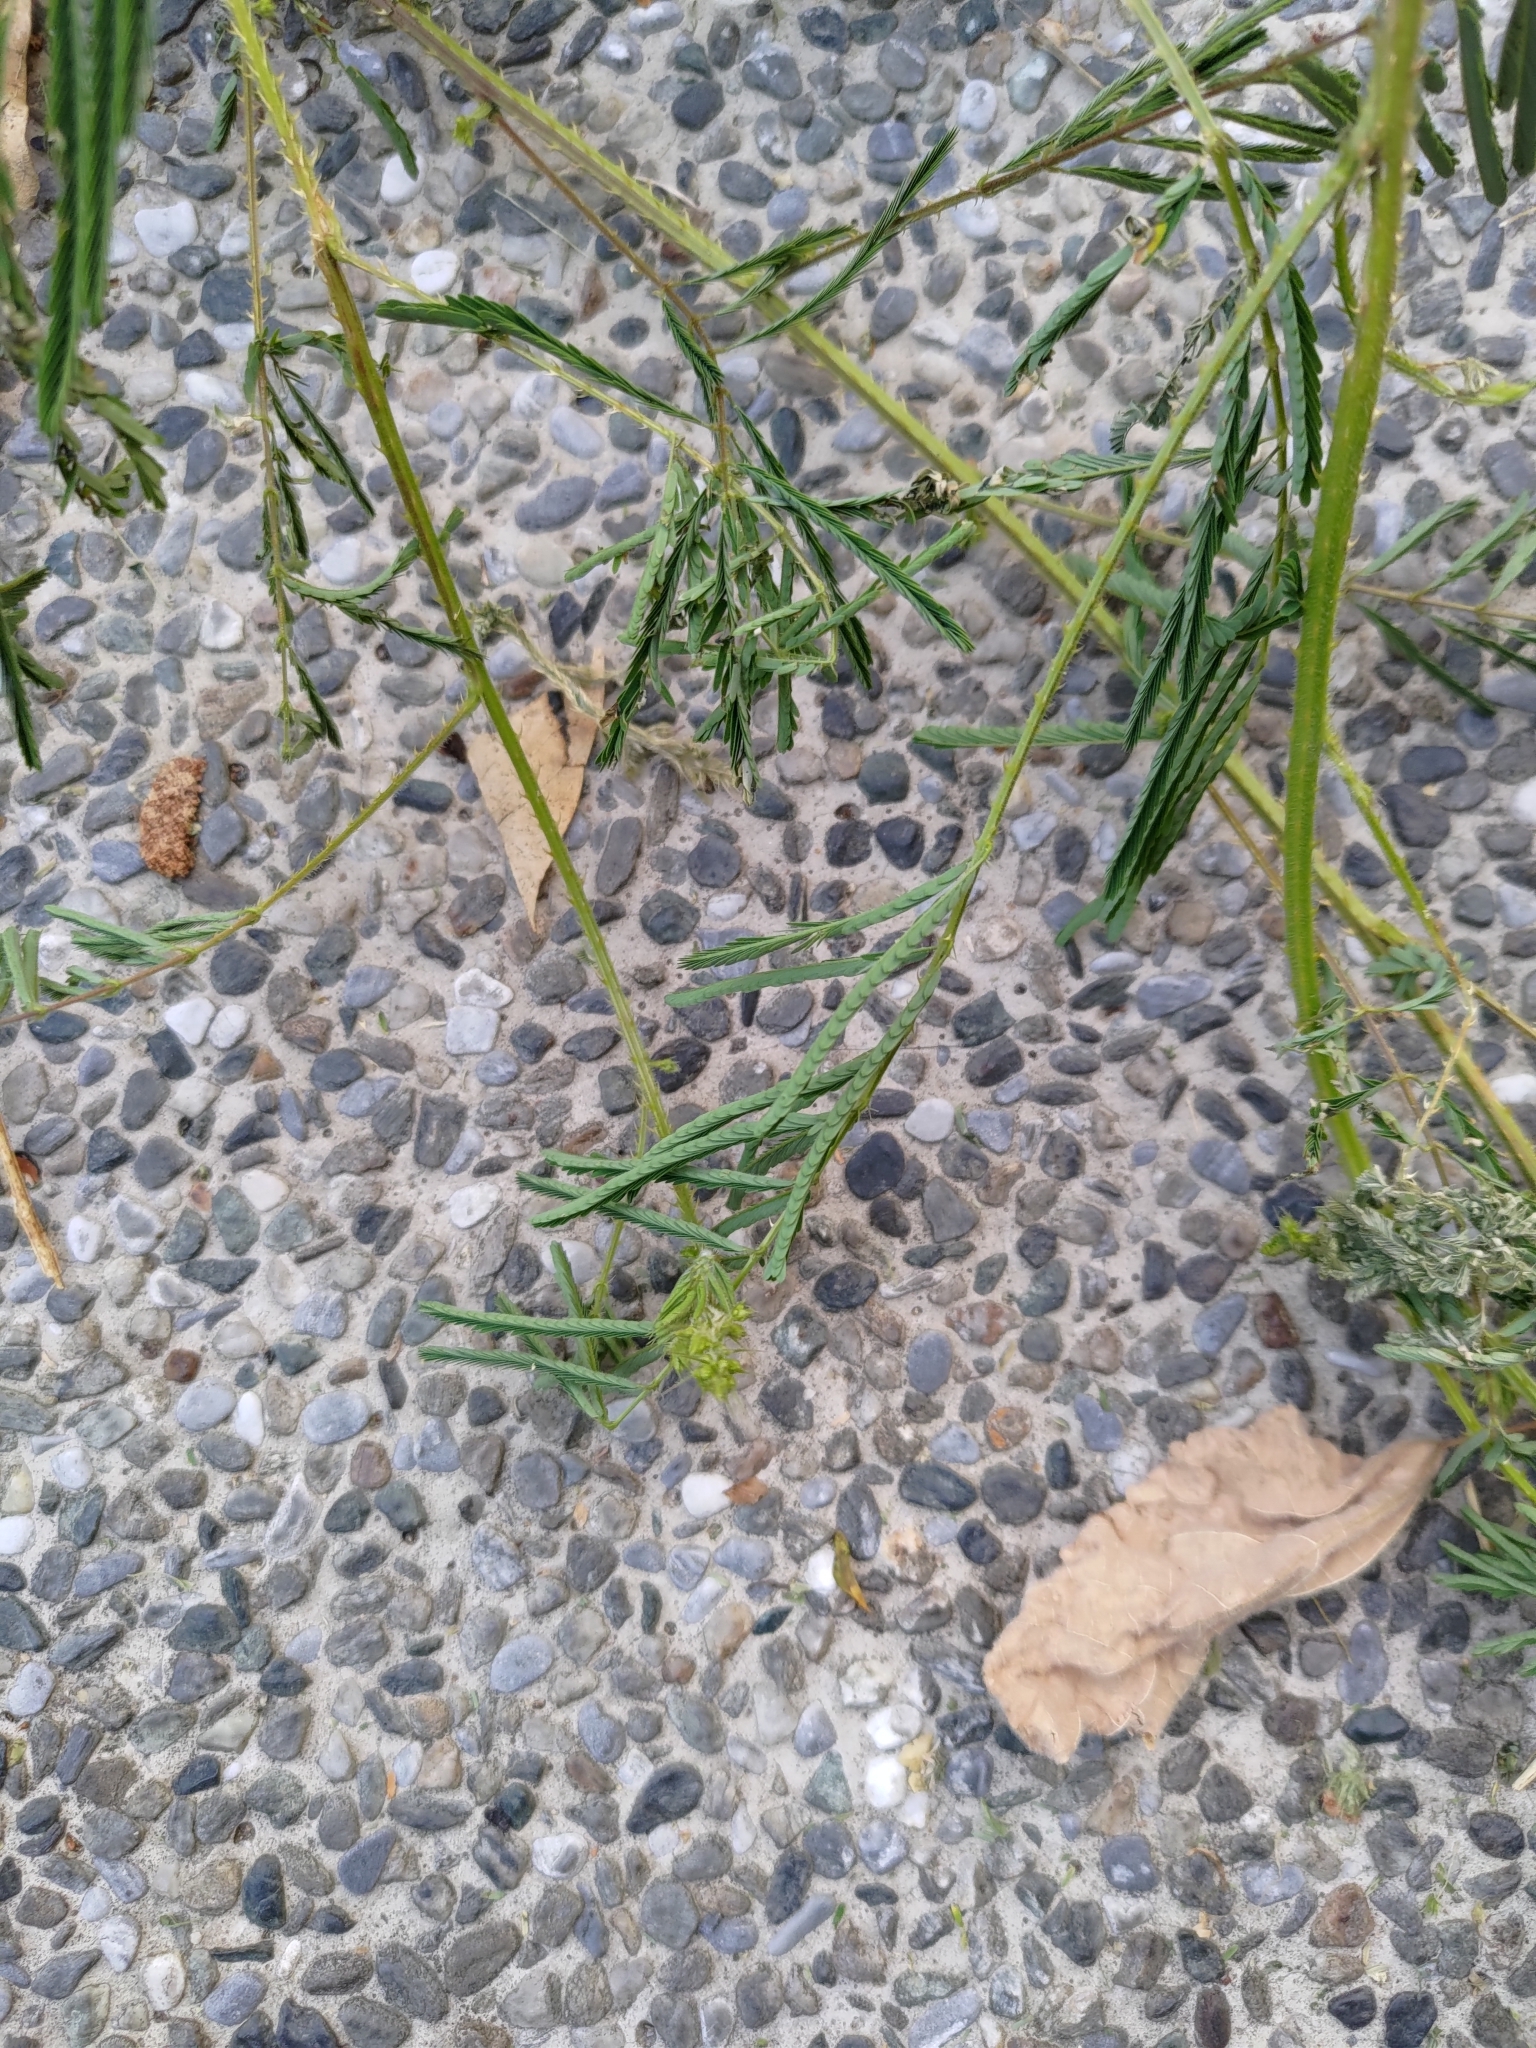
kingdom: Plantae
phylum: Tracheophyta
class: Magnoliopsida
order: Fabales
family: Fabaceae
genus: Mimosa
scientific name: Mimosa diplotricha
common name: Giant sensitive-plant
